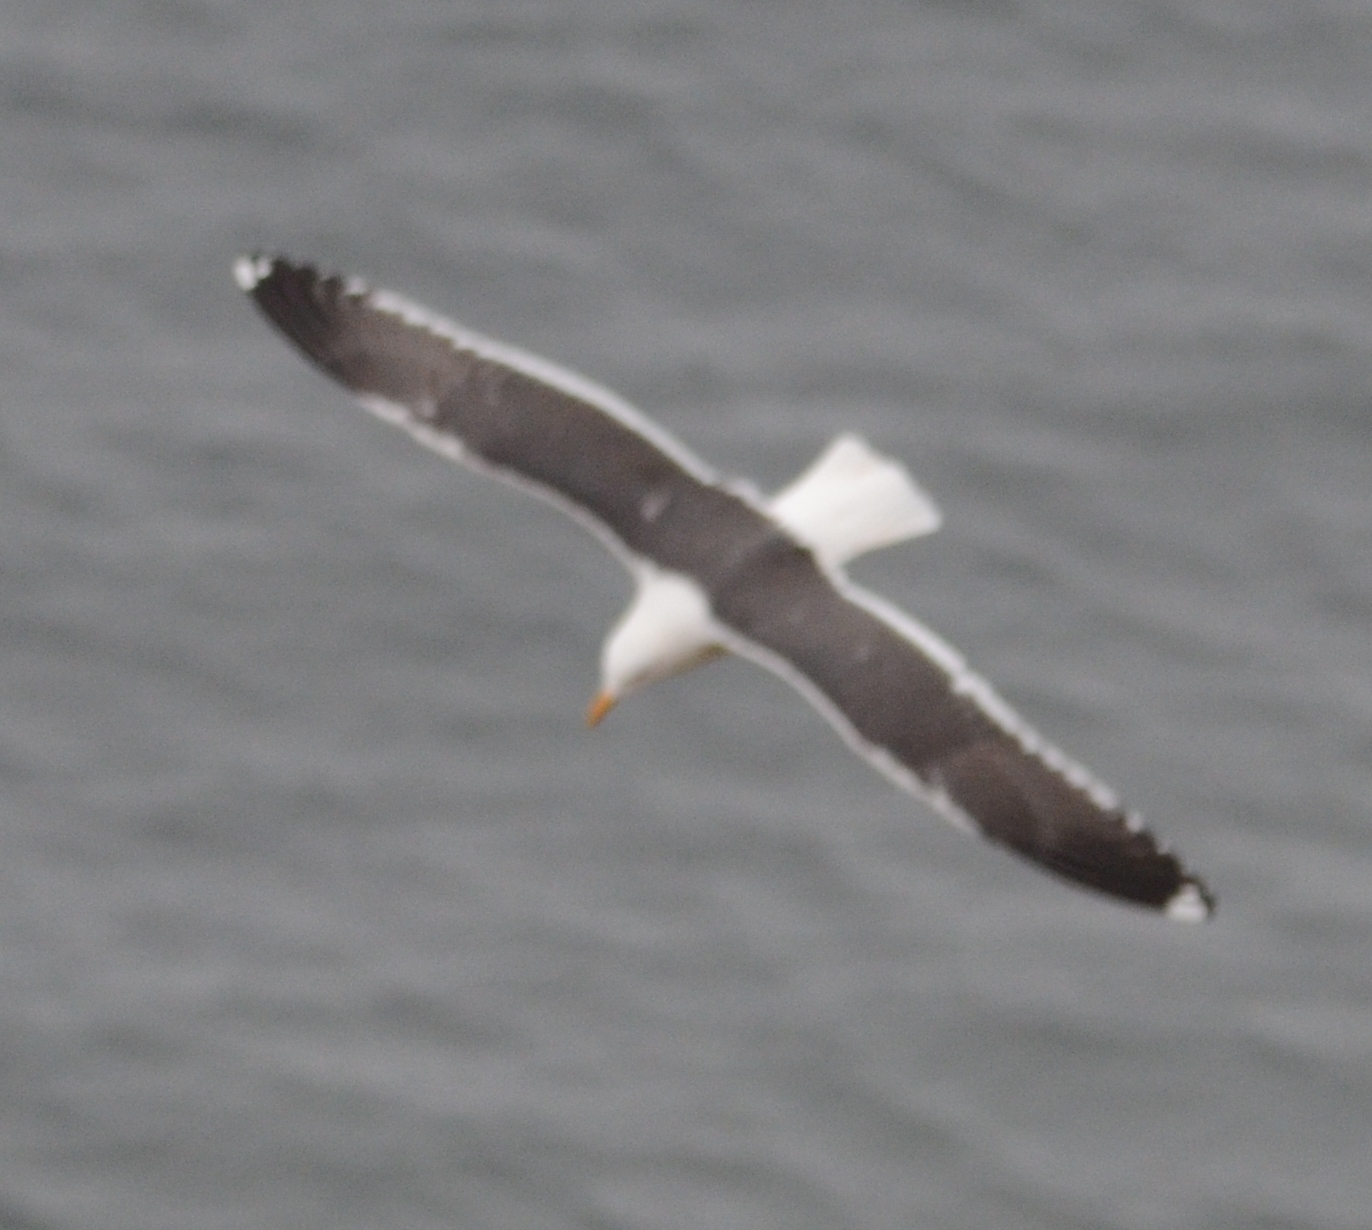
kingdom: Animalia
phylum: Chordata
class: Aves
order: Charadriiformes
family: Laridae
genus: Larus
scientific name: Larus fuscus
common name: Lesser black-backed gull
